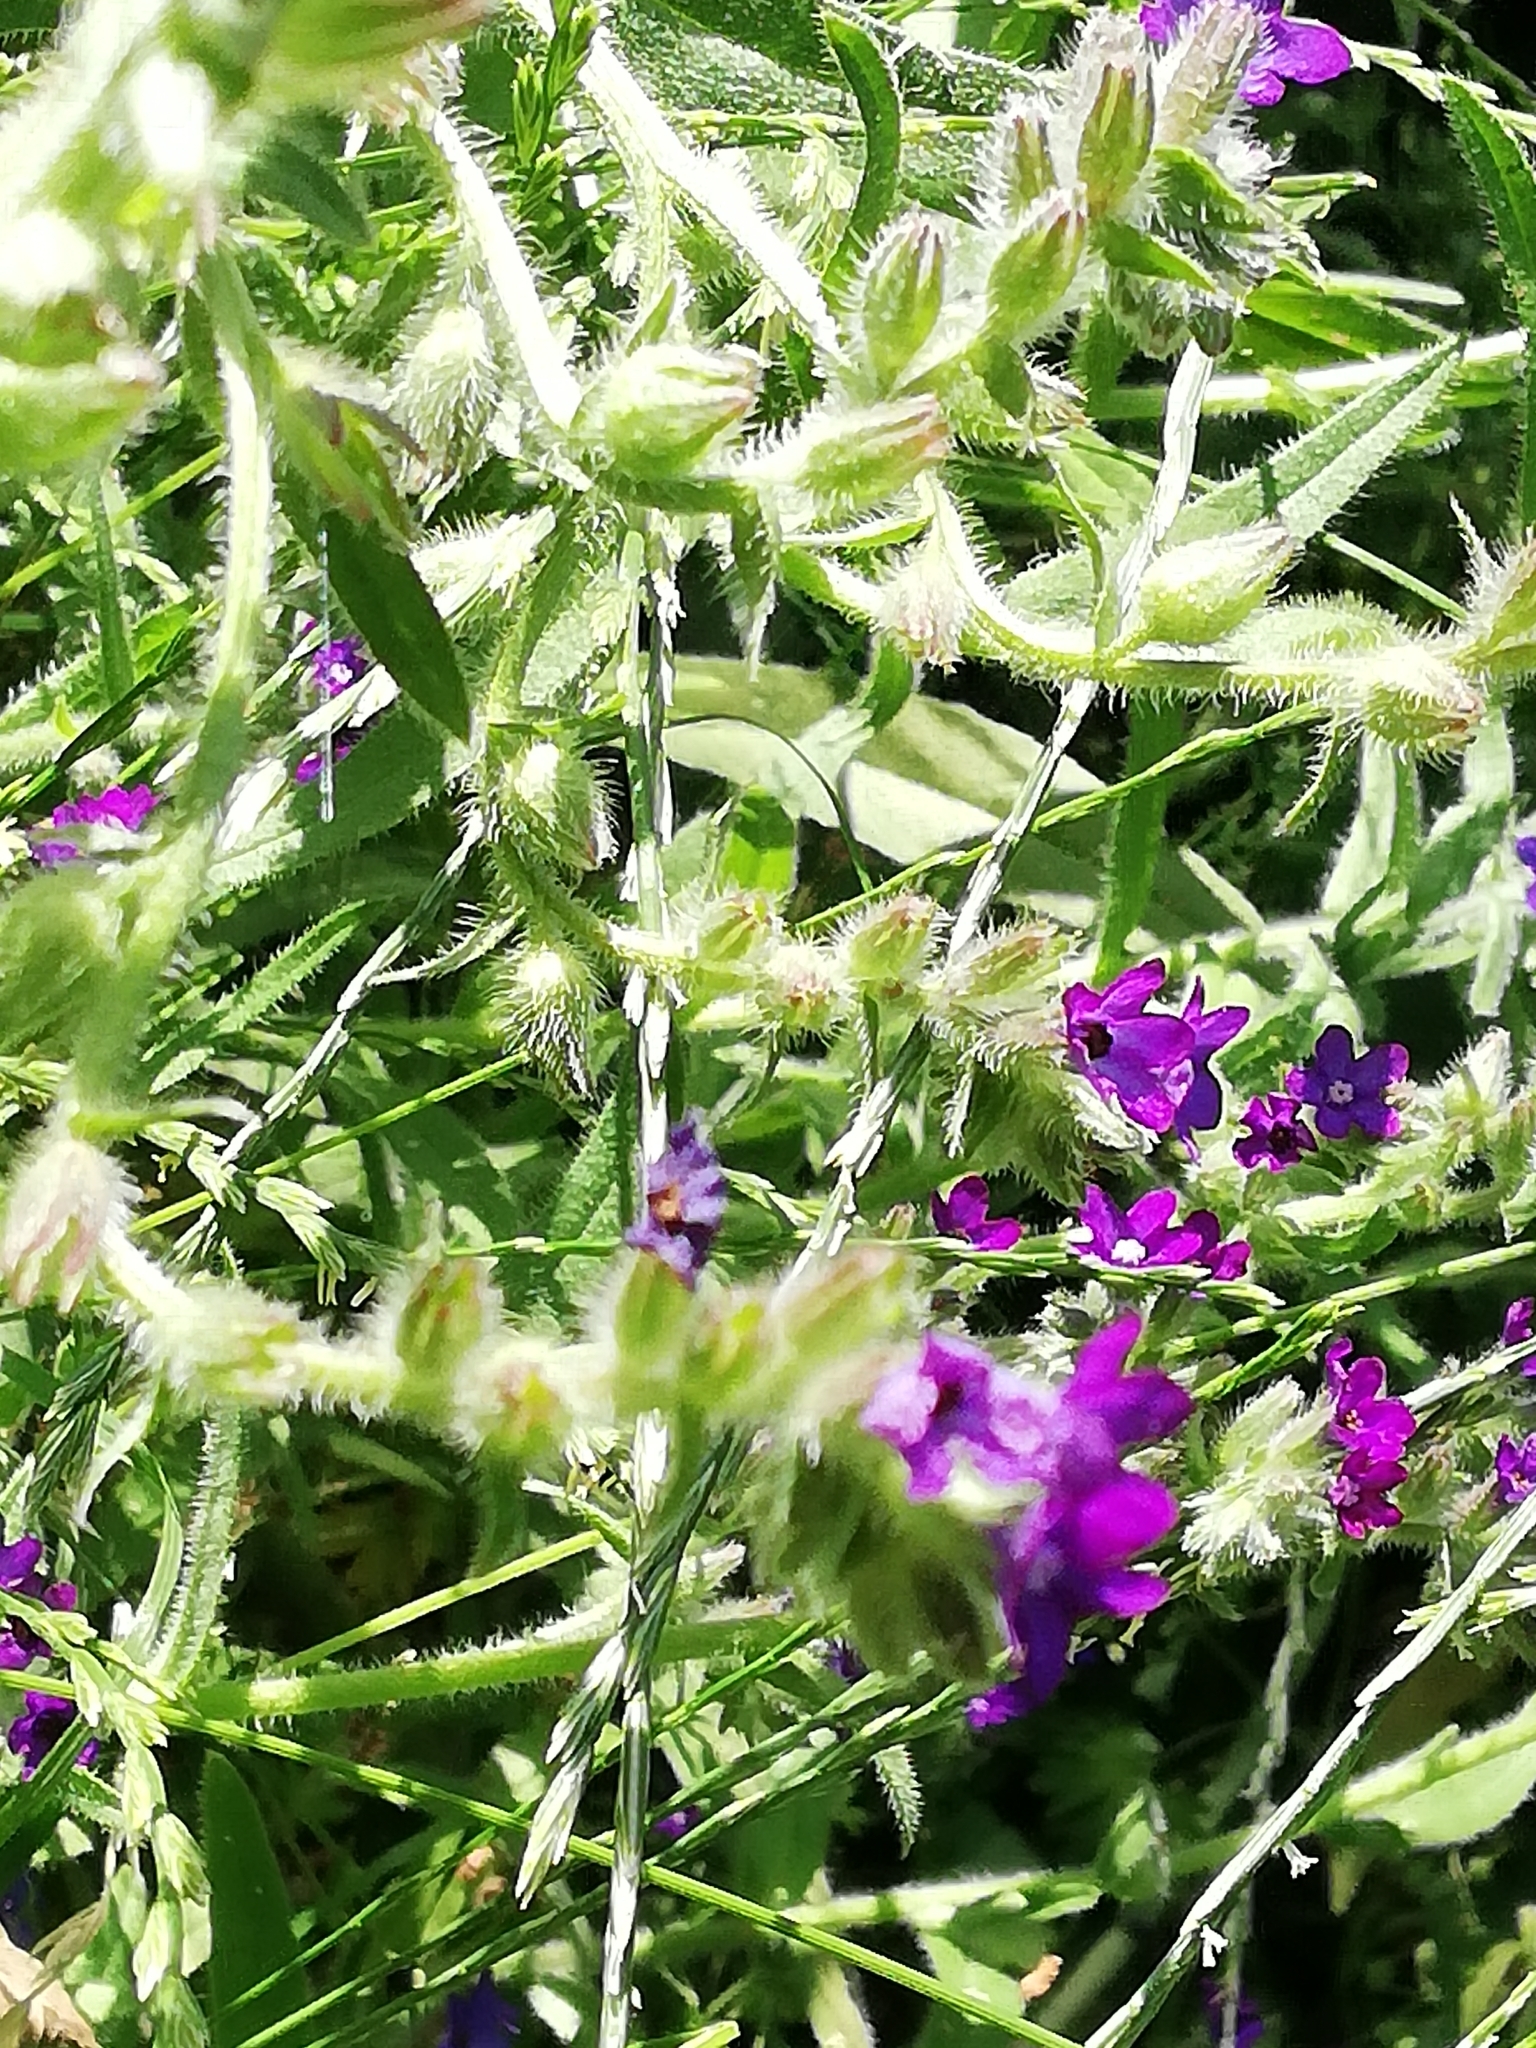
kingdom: Plantae
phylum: Tracheophyta
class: Magnoliopsida
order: Boraginales
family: Boraginaceae
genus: Anchusa
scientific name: Anchusa officinalis
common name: Alkanet
